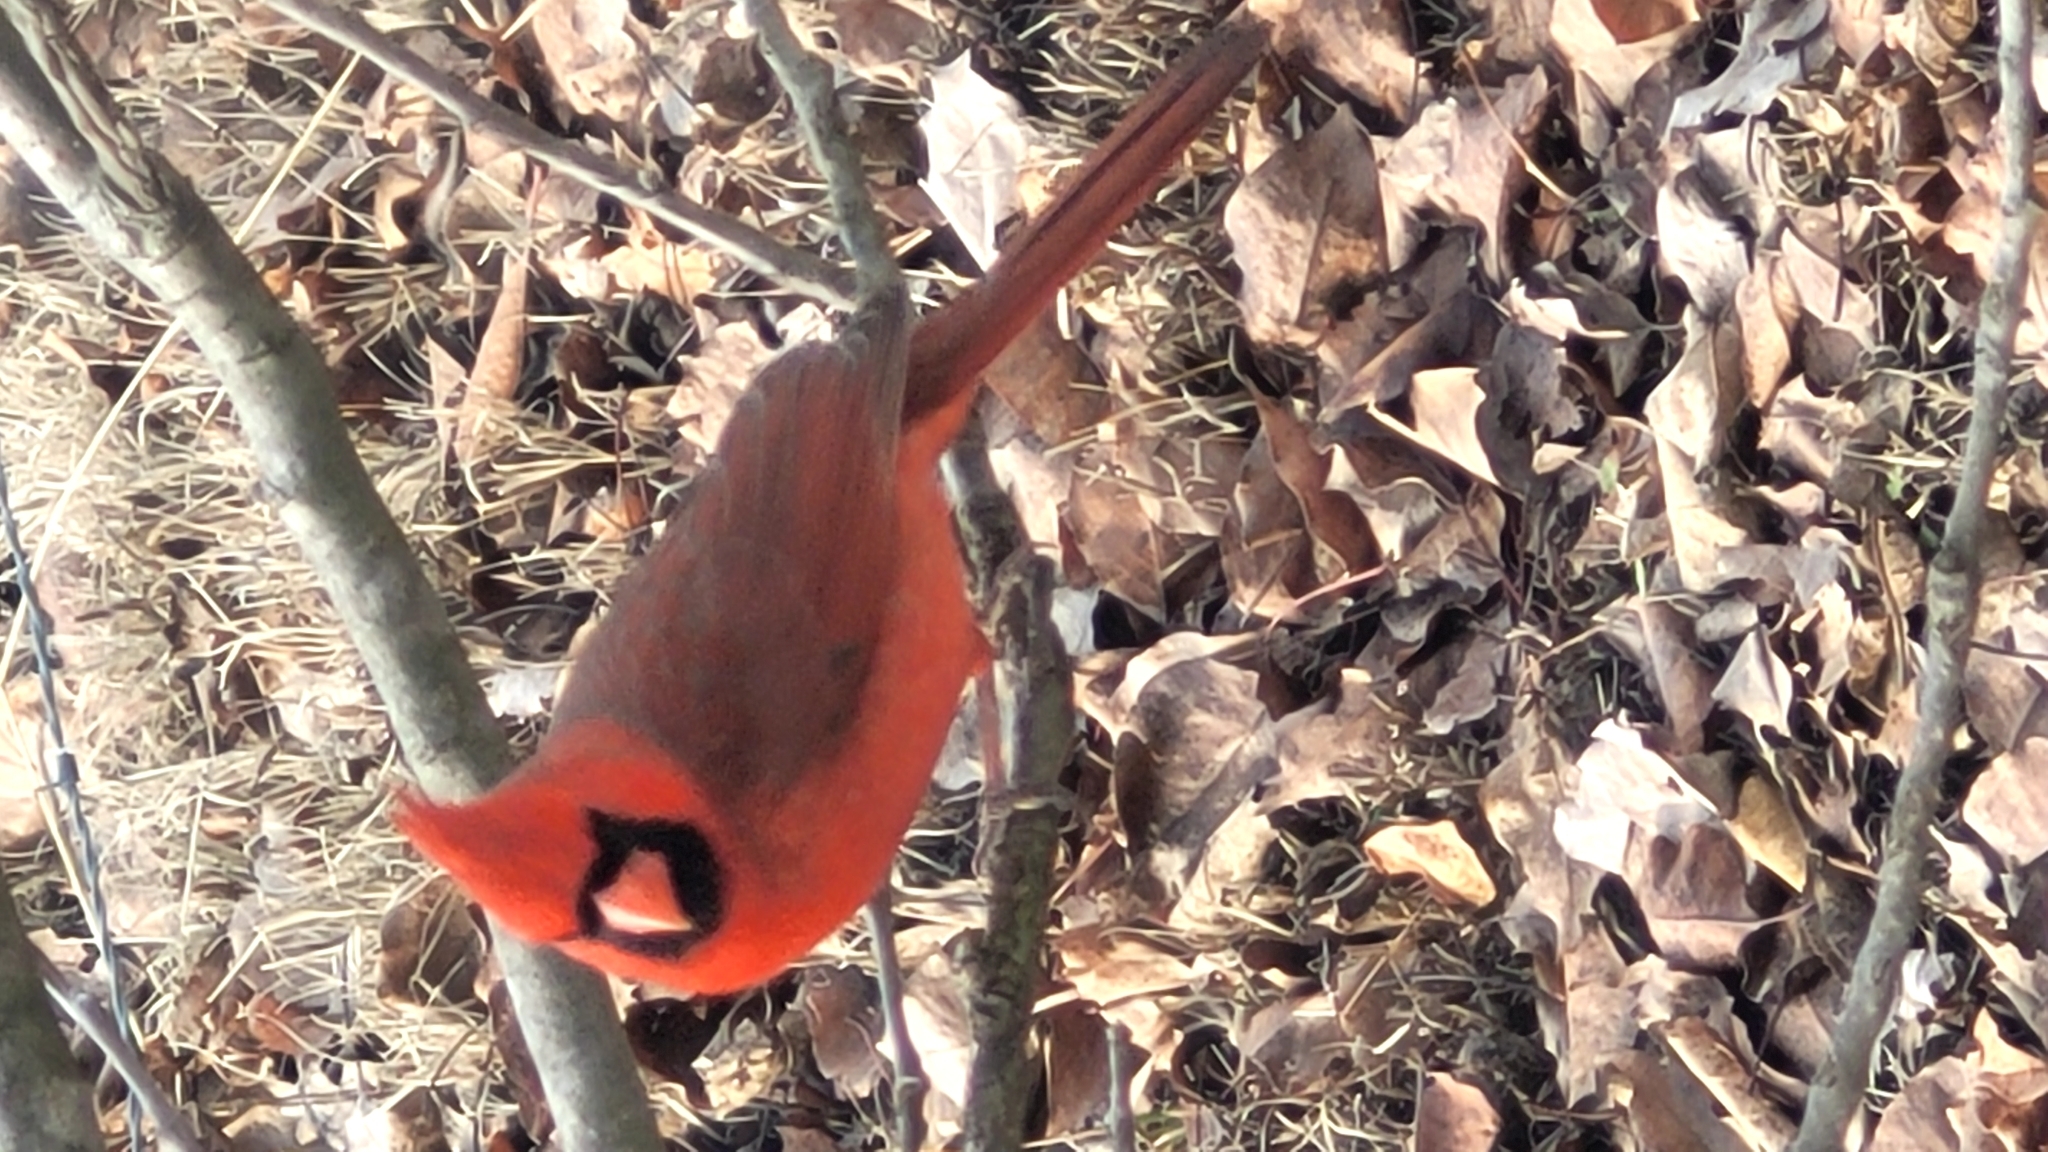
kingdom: Animalia
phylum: Chordata
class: Aves
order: Passeriformes
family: Cardinalidae
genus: Cardinalis
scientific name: Cardinalis cardinalis
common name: Northern cardinal
